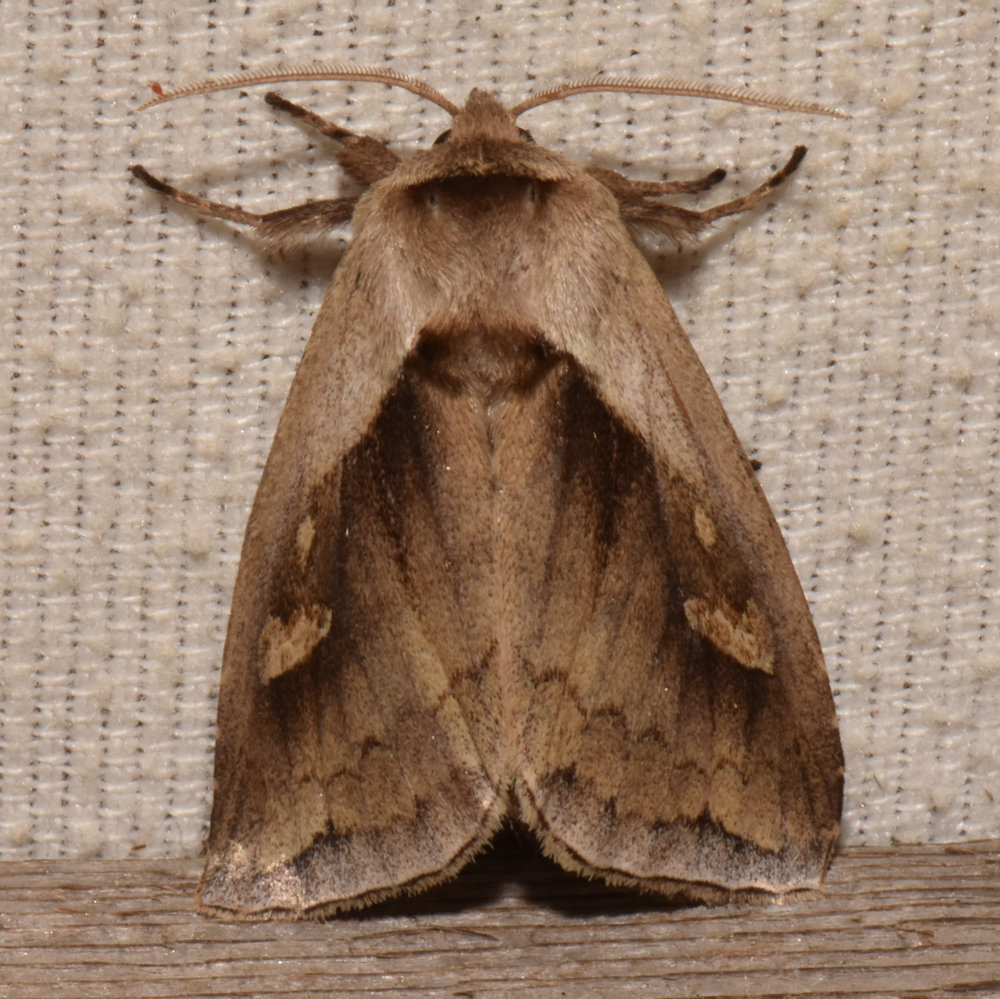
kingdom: Animalia
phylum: Arthropoda
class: Insecta
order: Lepidoptera
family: Noctuidae
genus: Bellura
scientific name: Bellura obliqua
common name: Cattail borer moth
